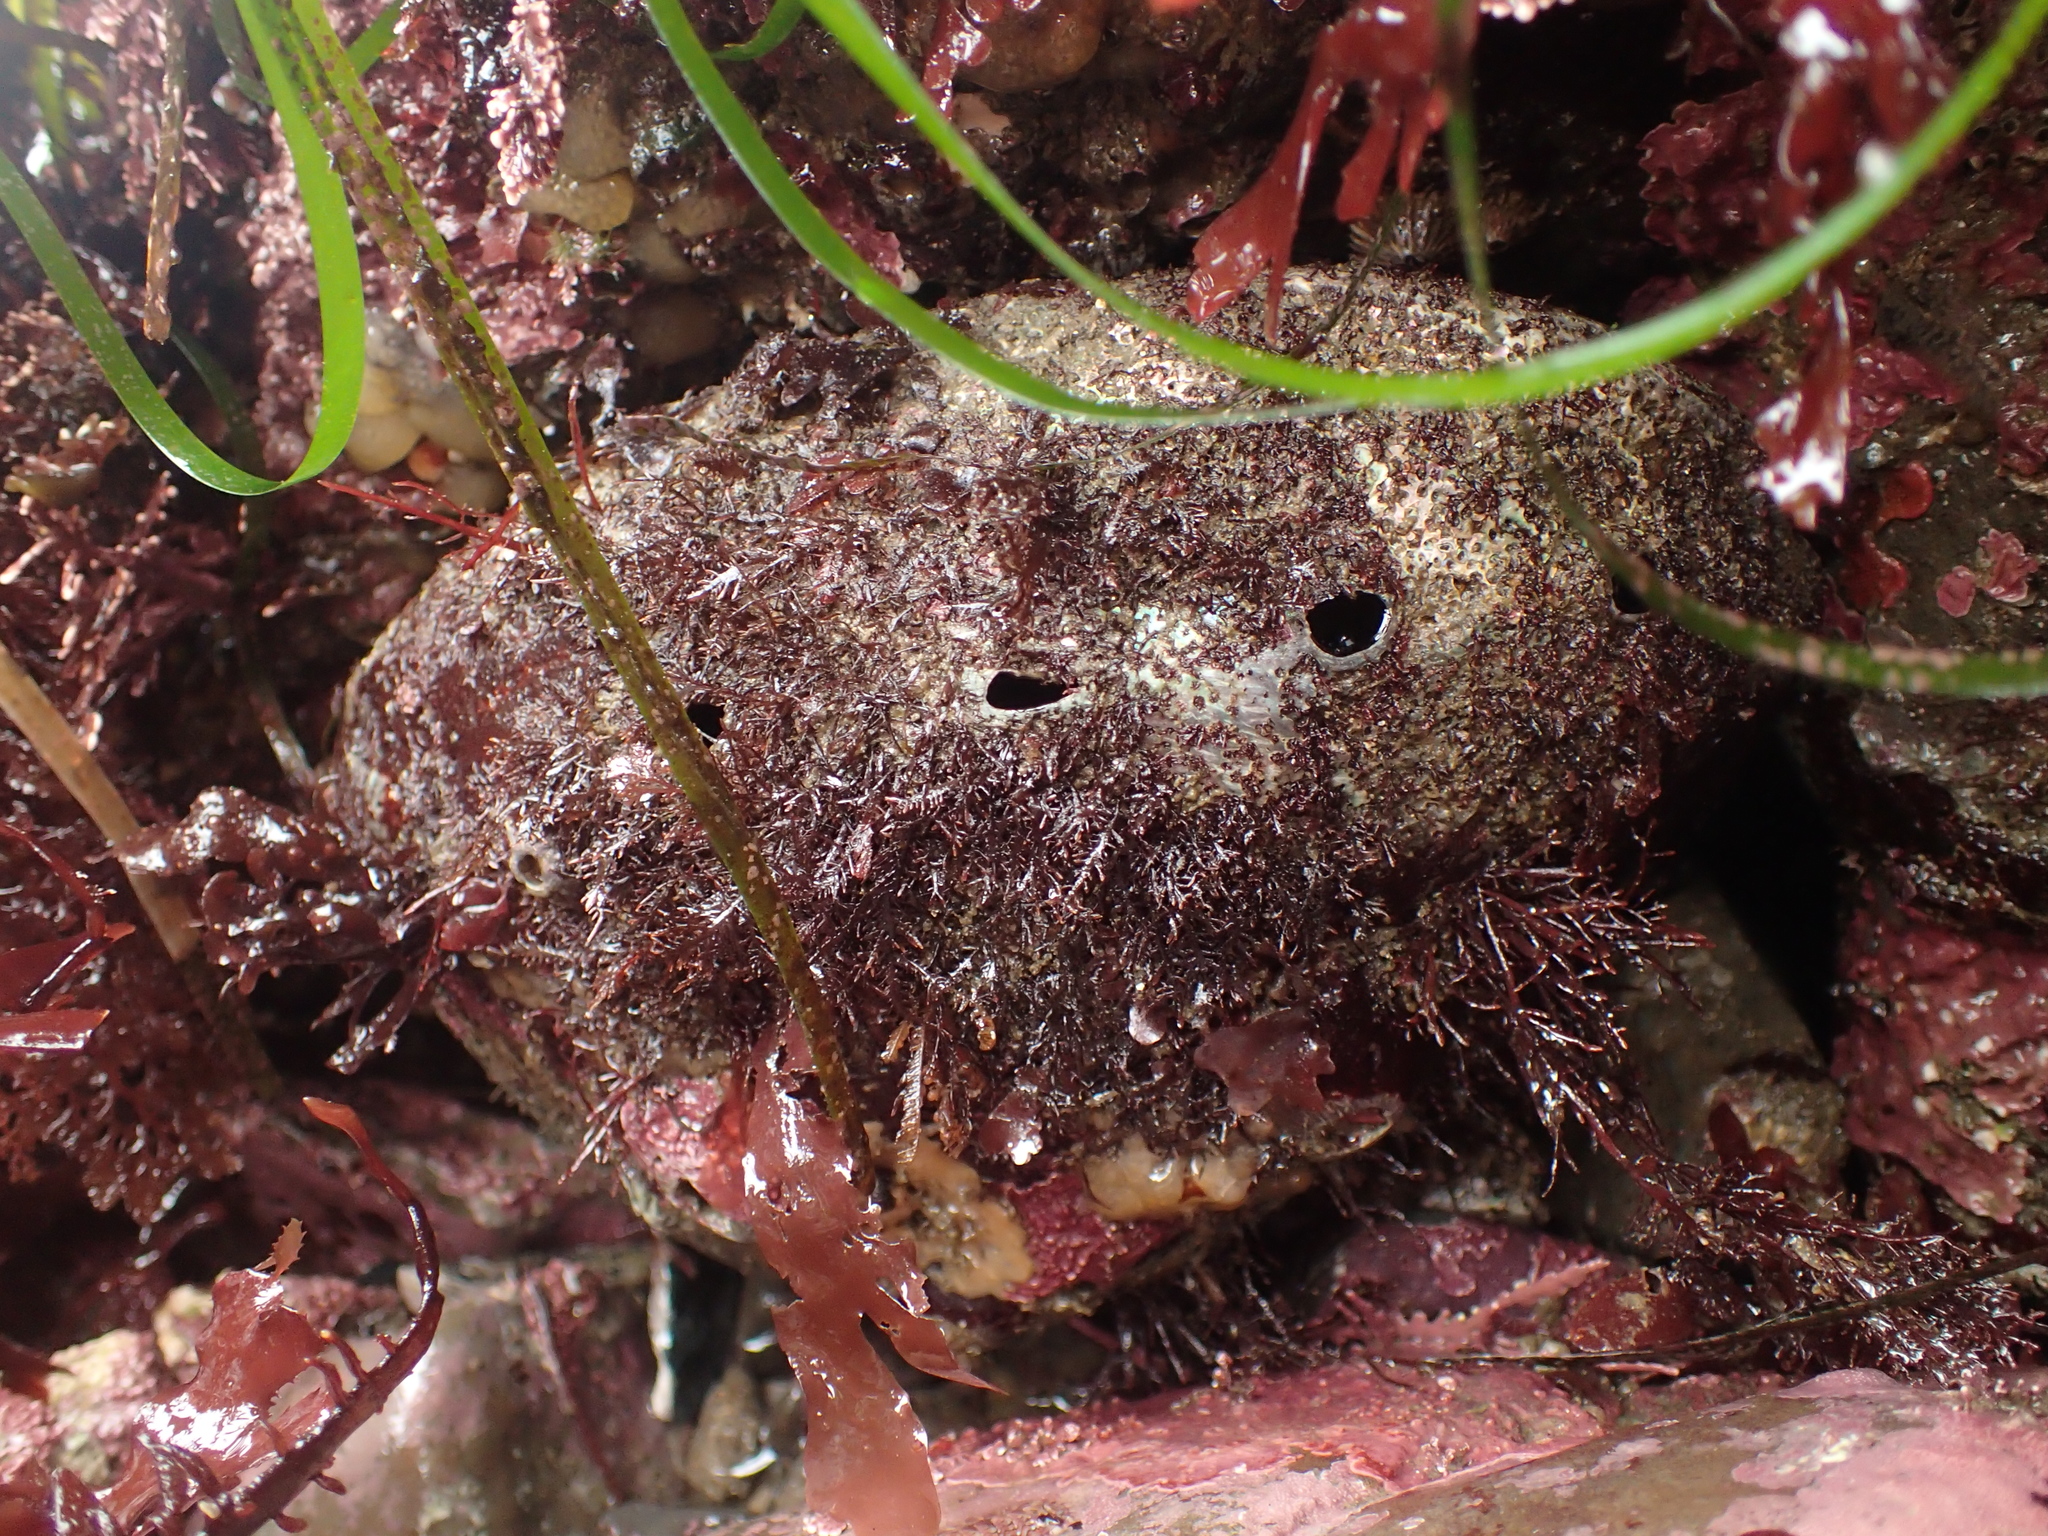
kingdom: Animalia
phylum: Mollusca
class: Gastropoda
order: Lepetellida
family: Haliotidae
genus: Haliotis
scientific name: Haliotis rufescens
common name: Red abalone
